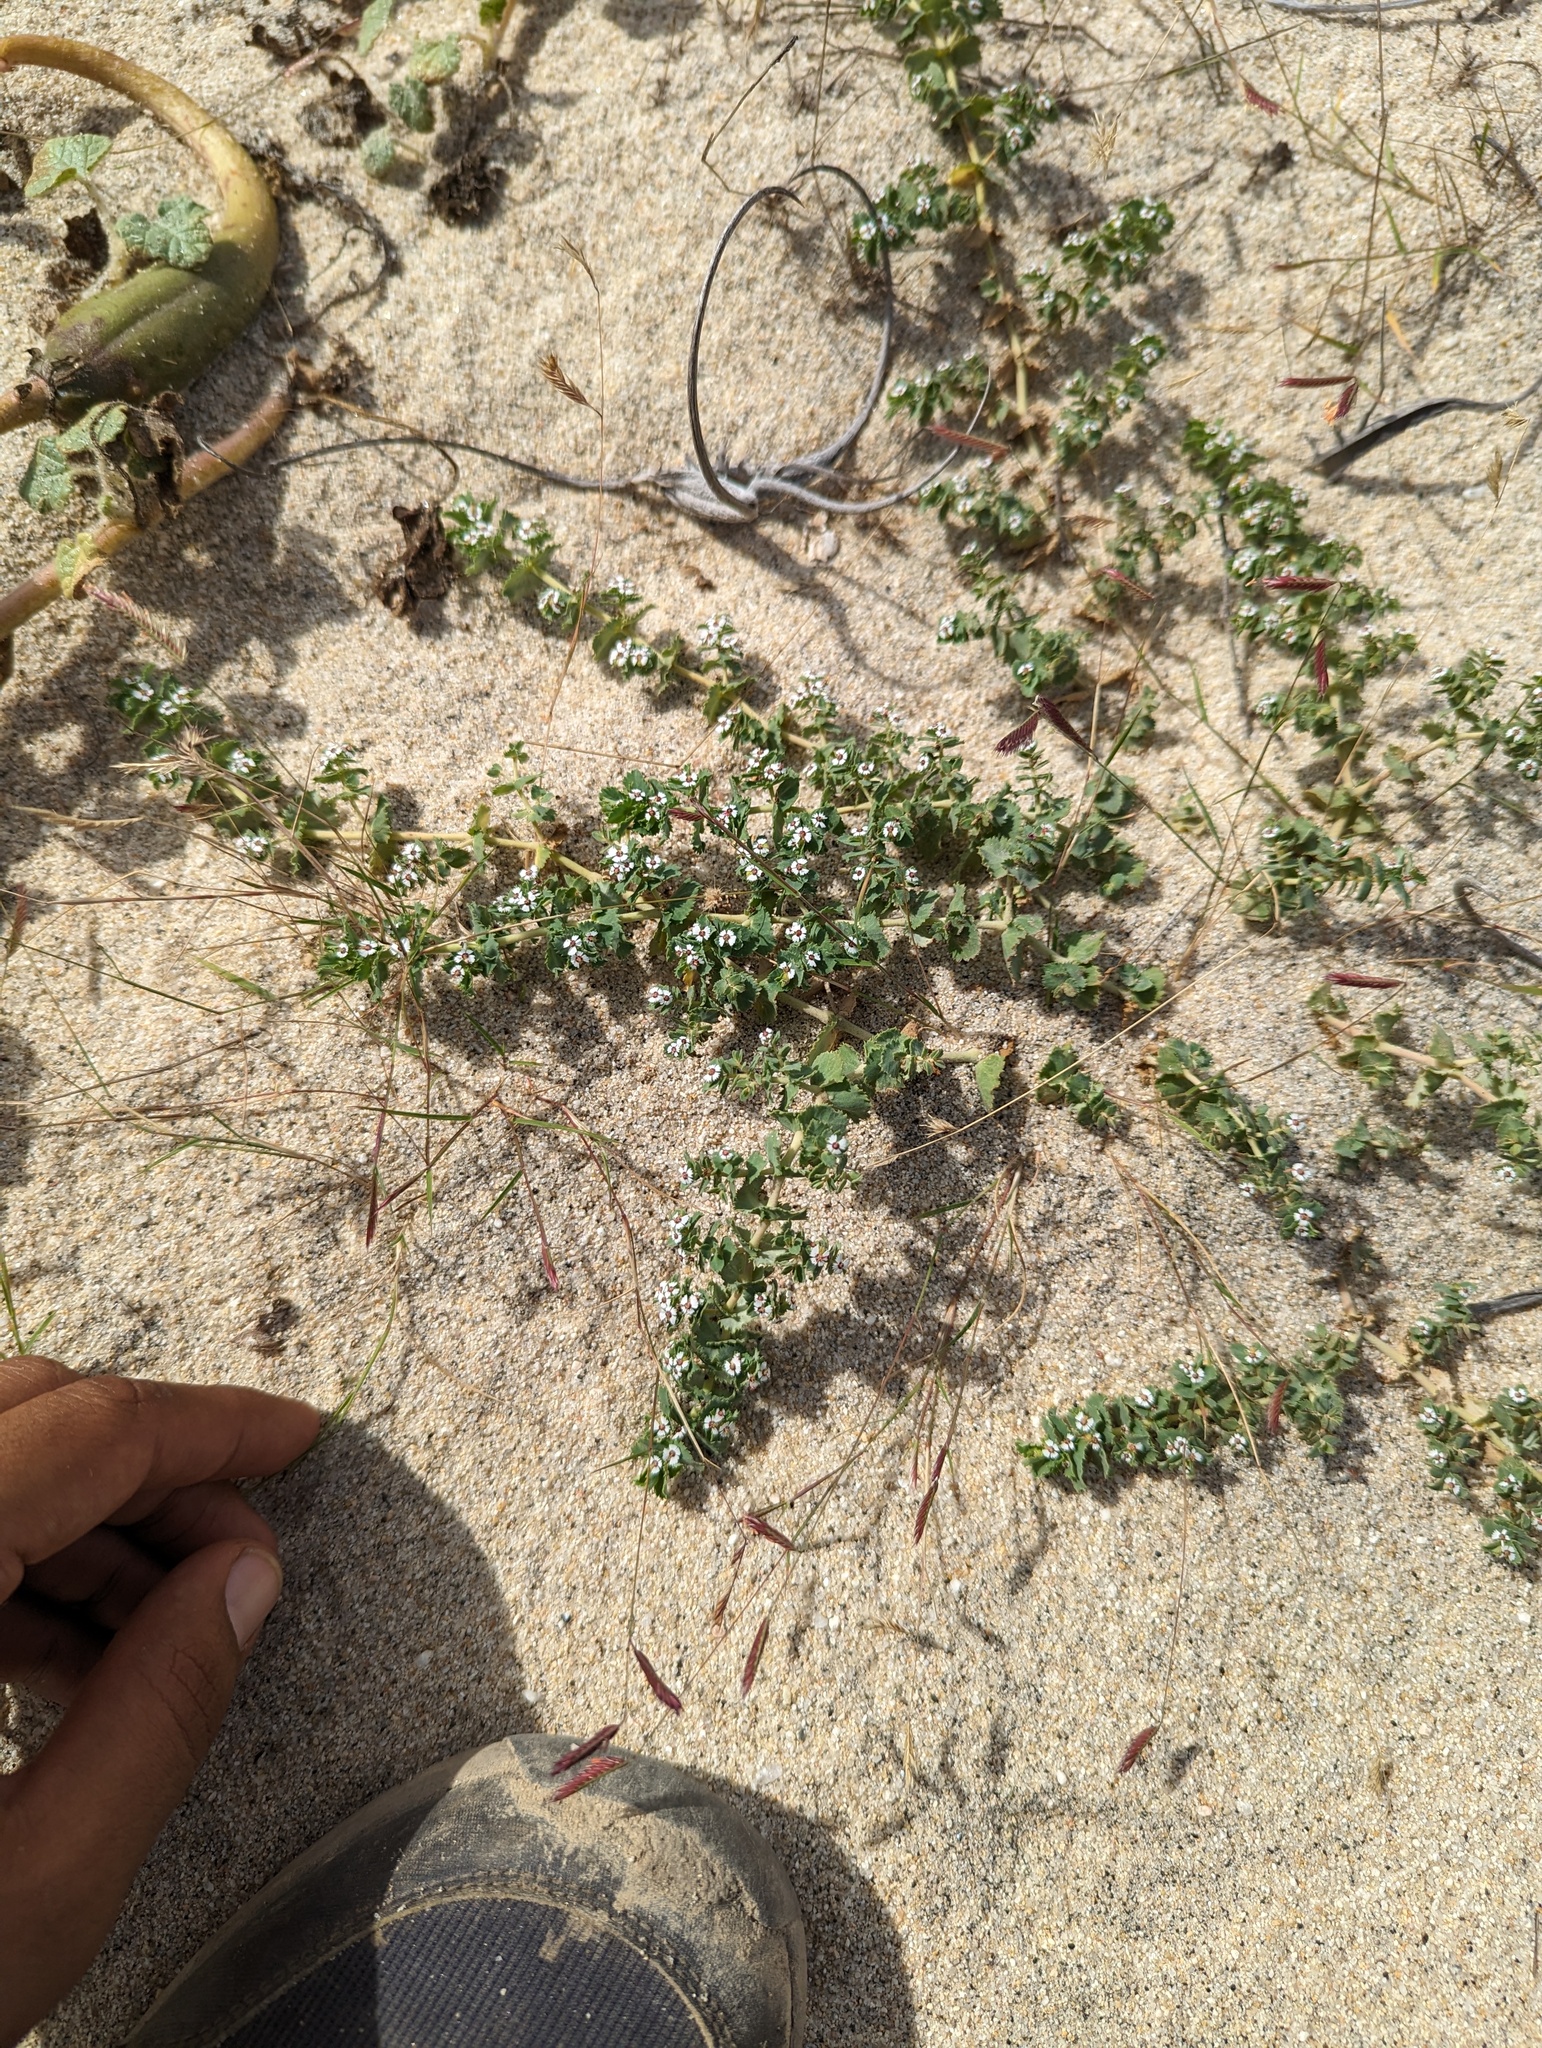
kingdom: Plantae
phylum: Tracheophyta
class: Magnoliopsida
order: Malpighiales
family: Euphorbiaceae
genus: Euphorbia
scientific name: Euphorbia leucophylla
